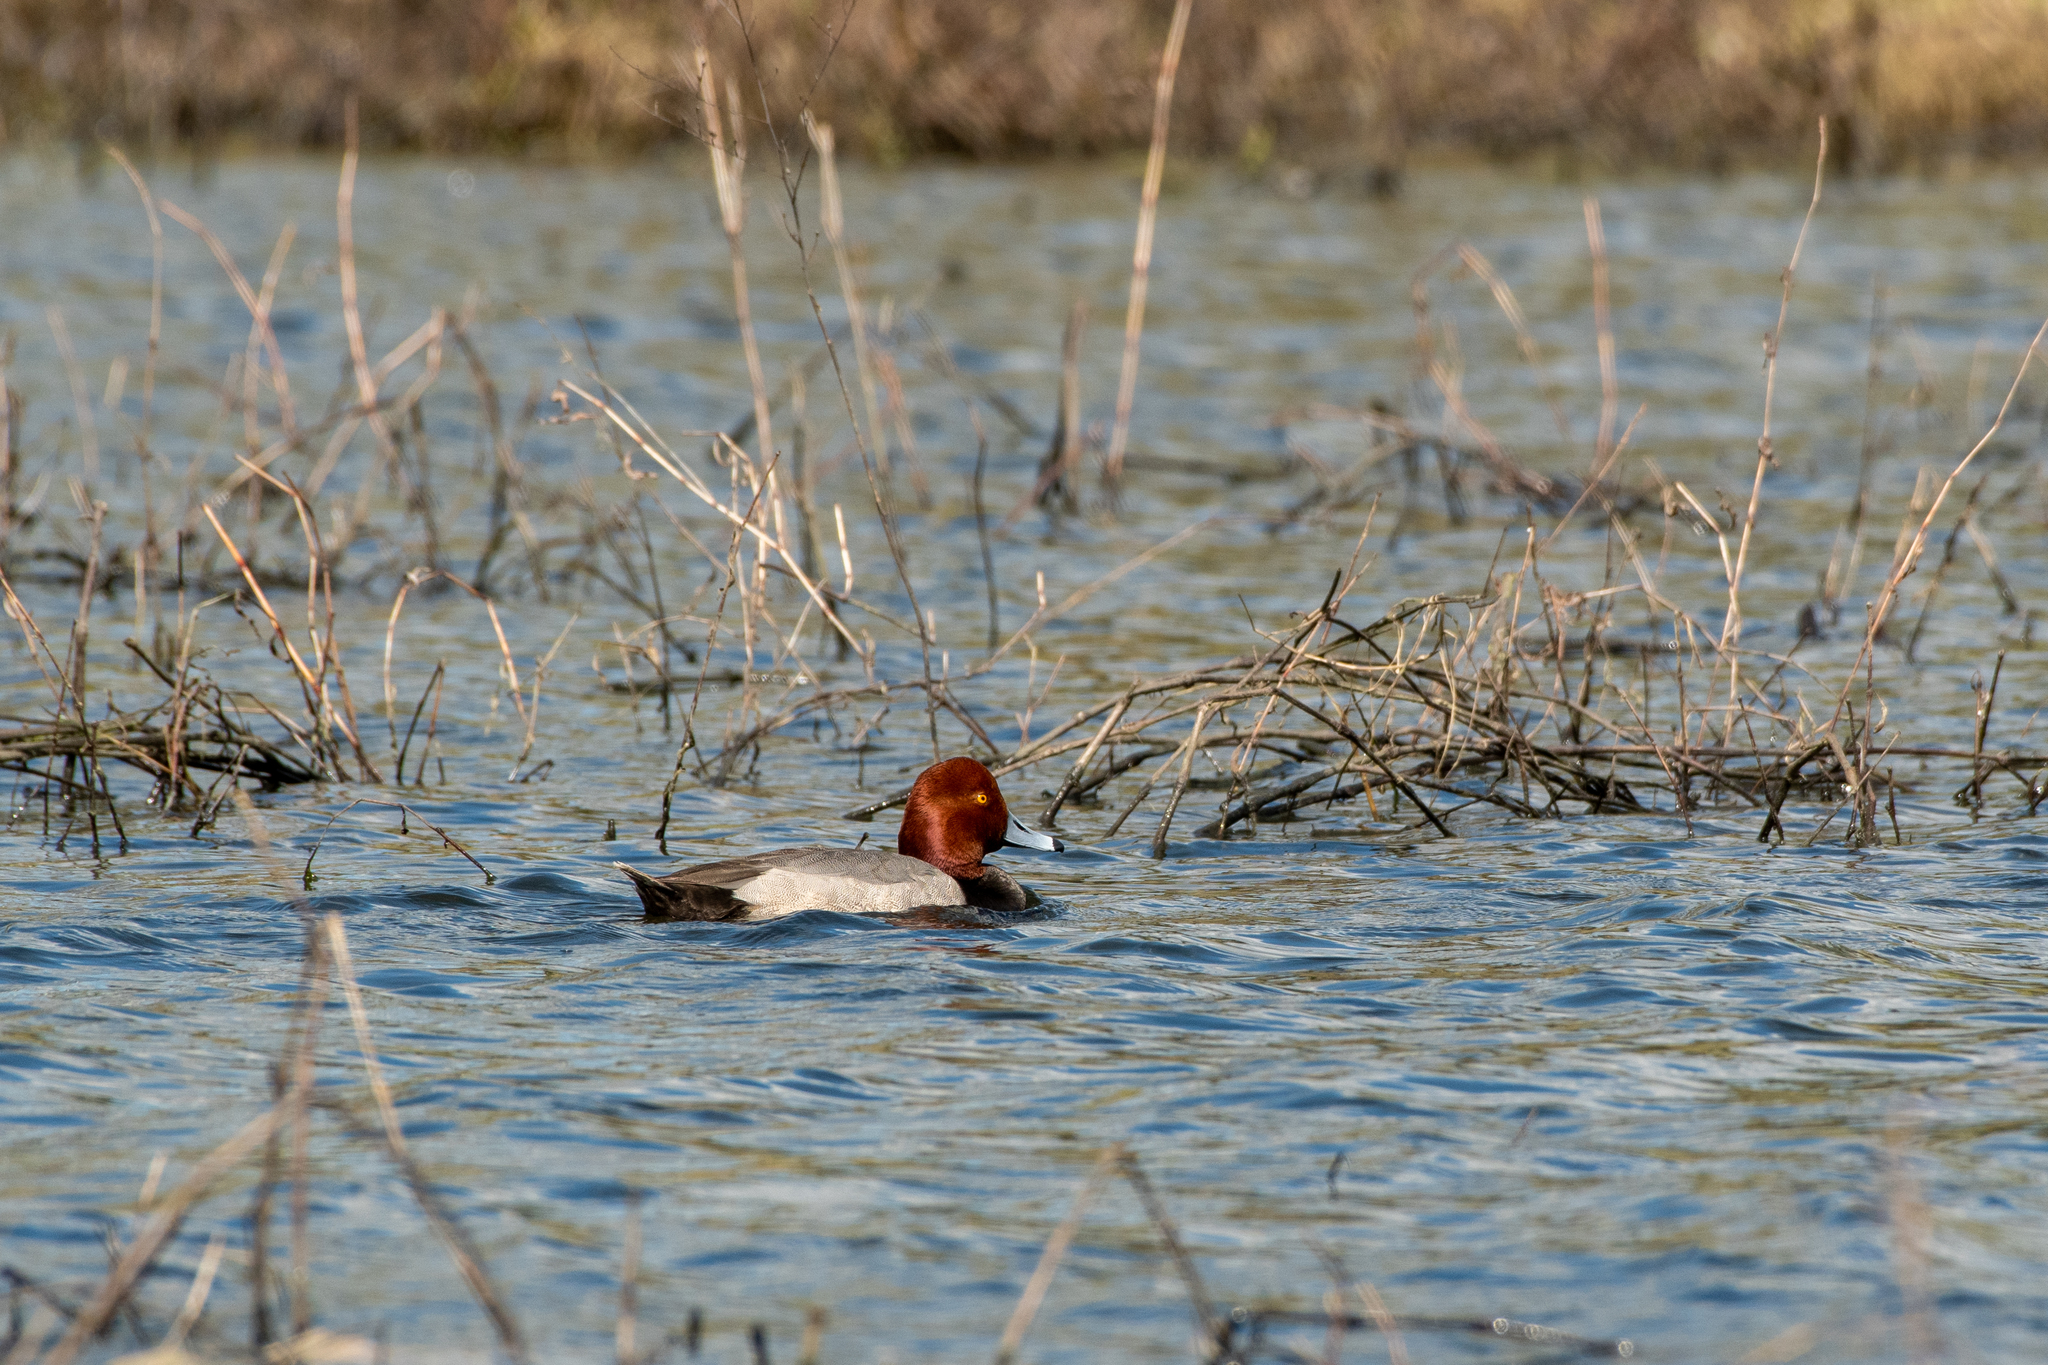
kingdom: Animalia
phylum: Chordata
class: Aves
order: Anseriformes
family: Anatidae
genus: Aythya
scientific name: Aythya americana
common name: Redhead
